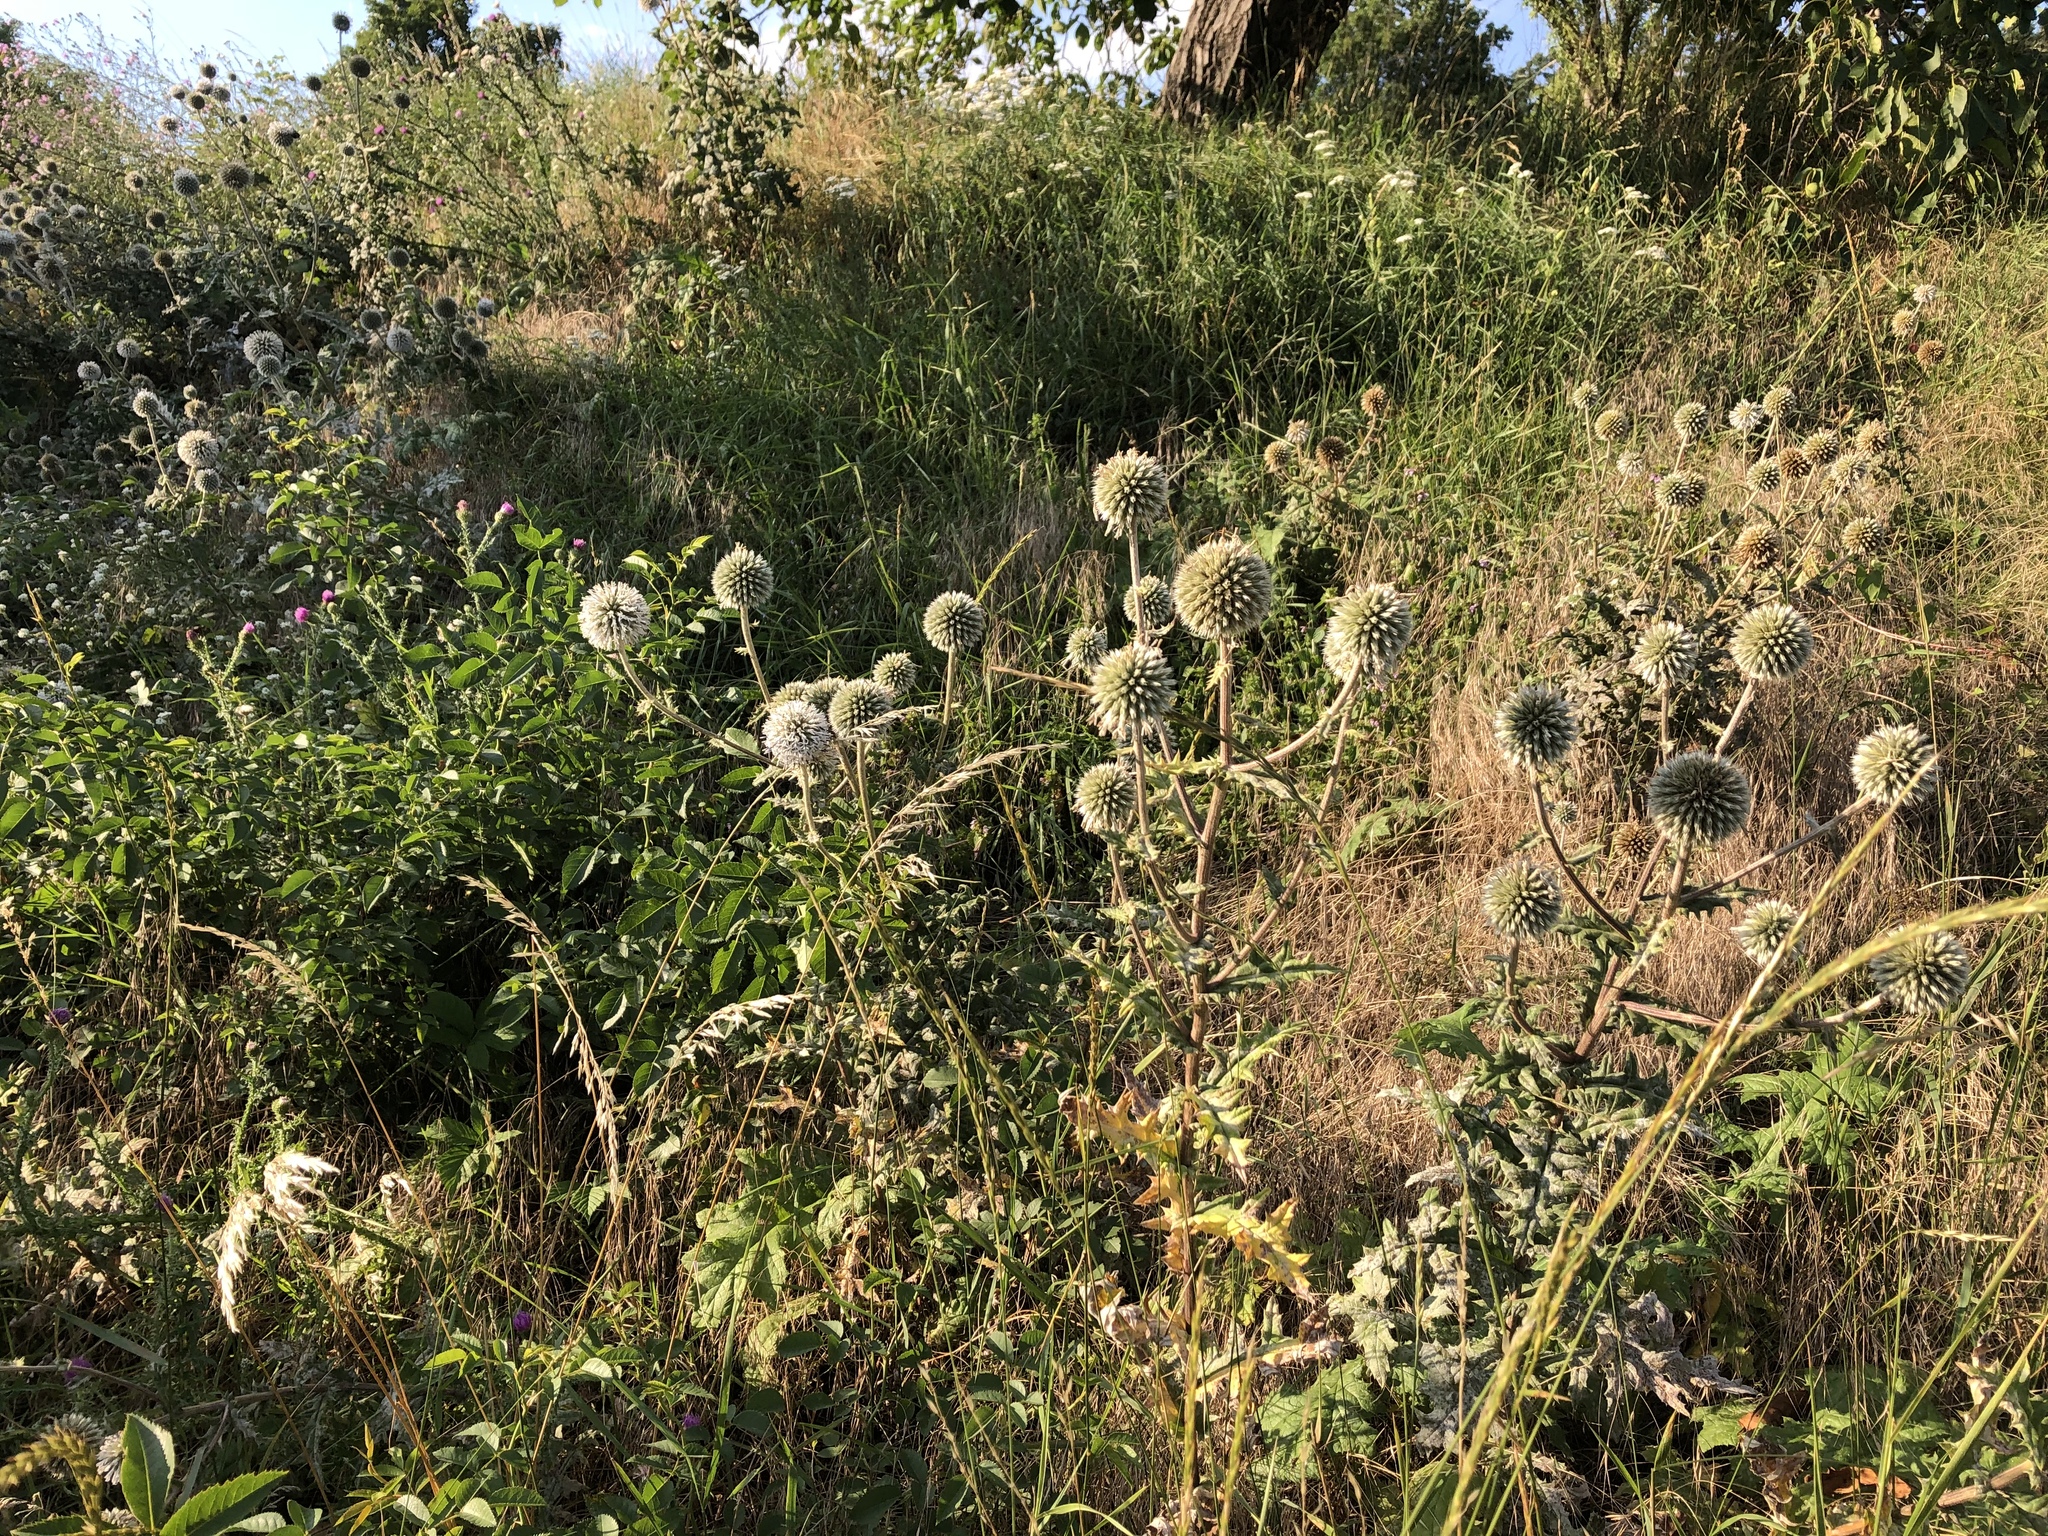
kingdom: Plantae
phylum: Tracheophyta
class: Magnoliopsida
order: Asterales
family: Asteraceae
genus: Echinops
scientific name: Echinops sphaerocephalus
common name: Glandular globe-thistle
